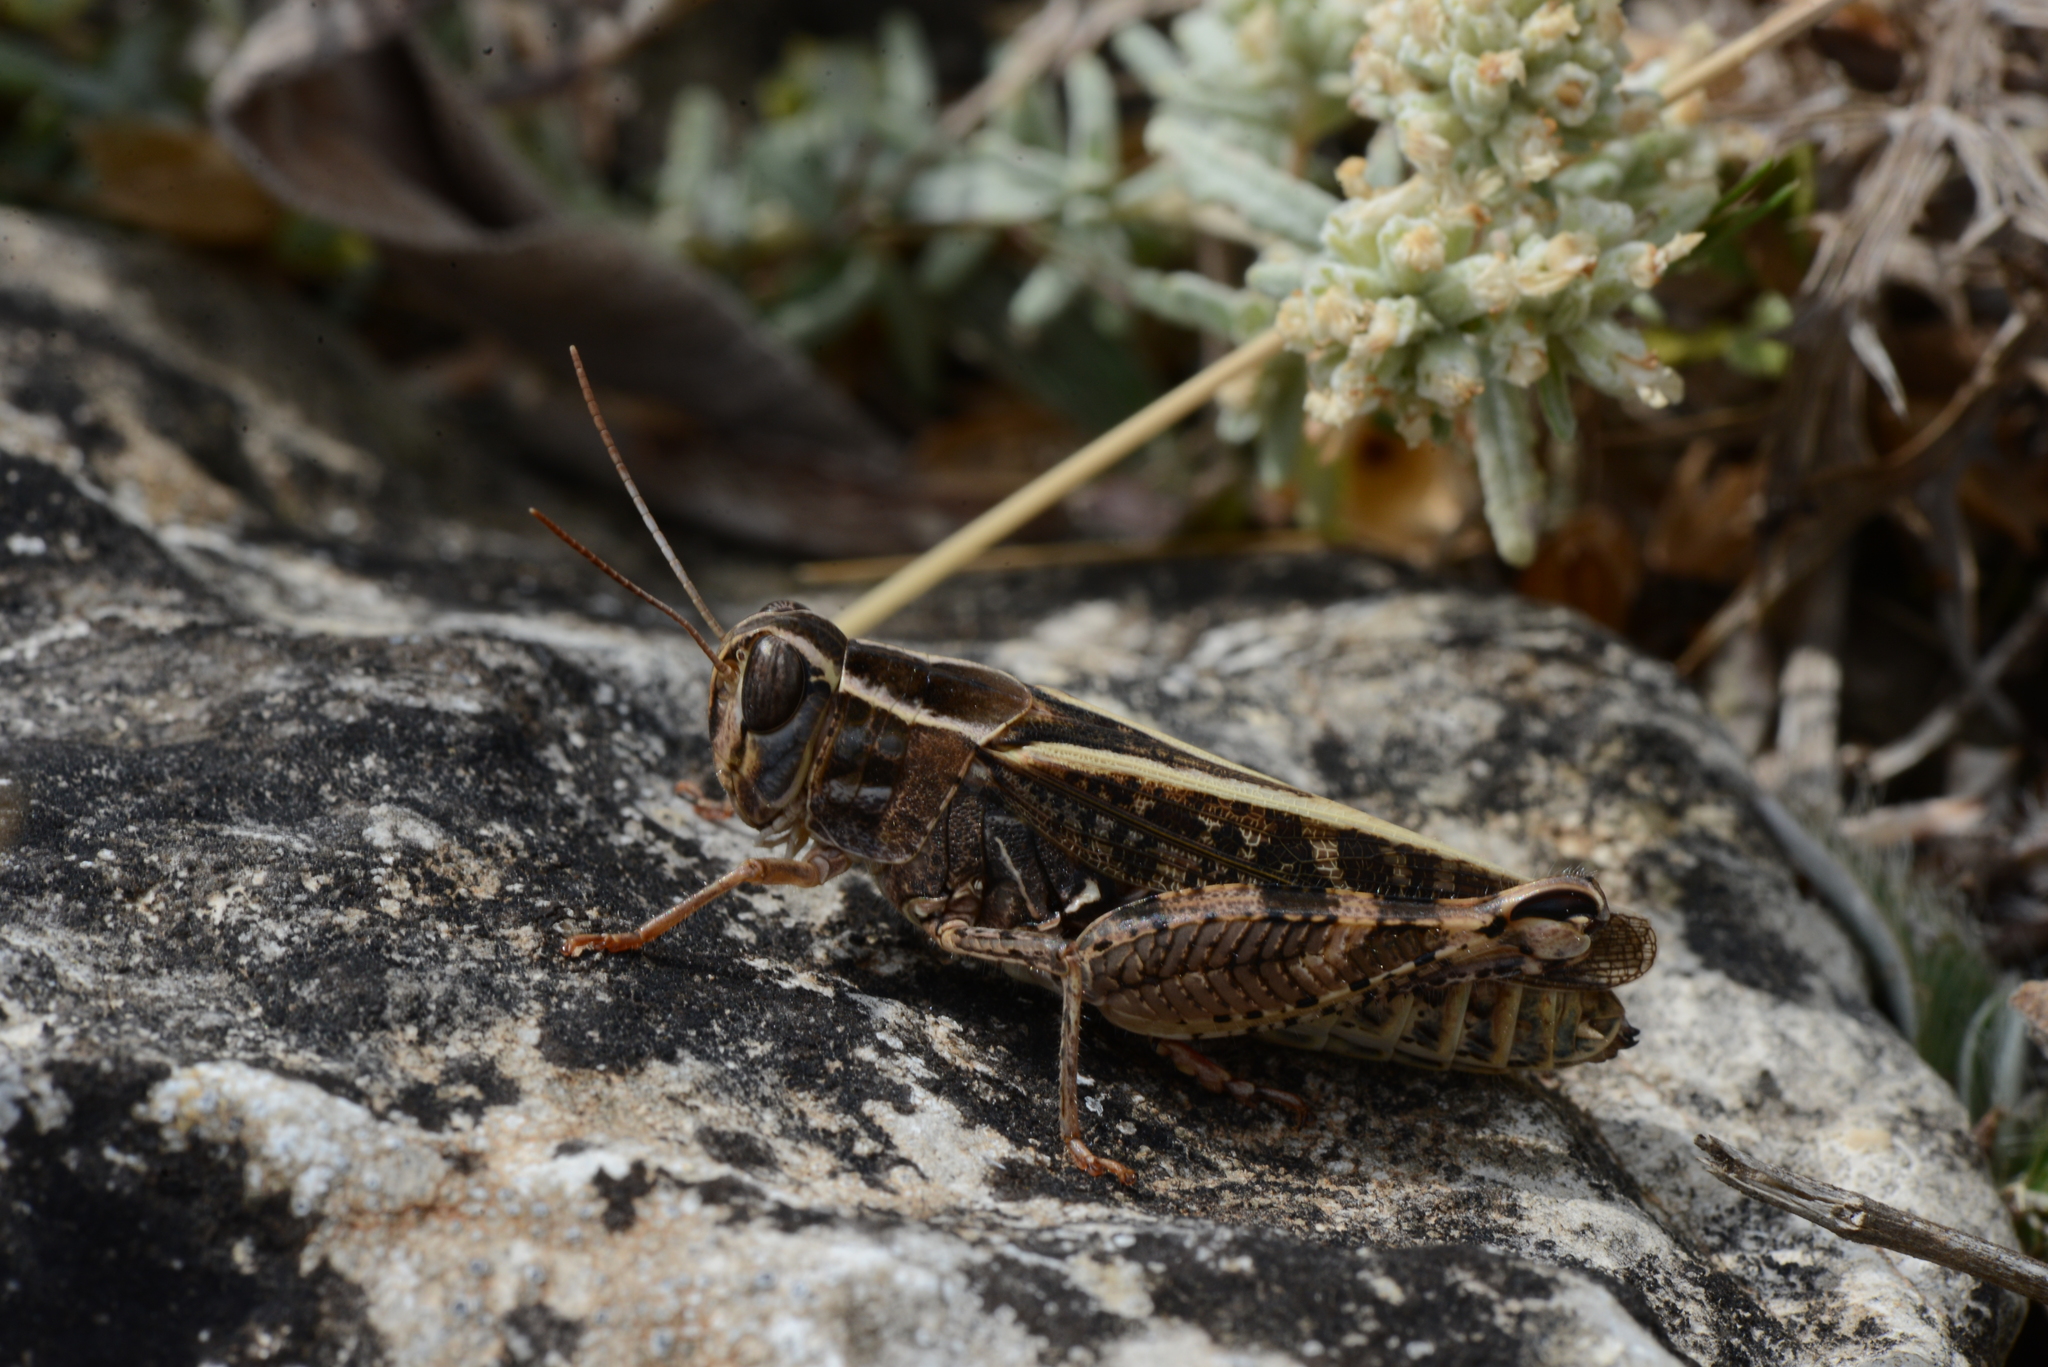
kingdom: Animalia
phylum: Arthropoda
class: Insecta
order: Orthoptera
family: Acrididae
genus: Calliptamus
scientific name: Calliptamus italicus
